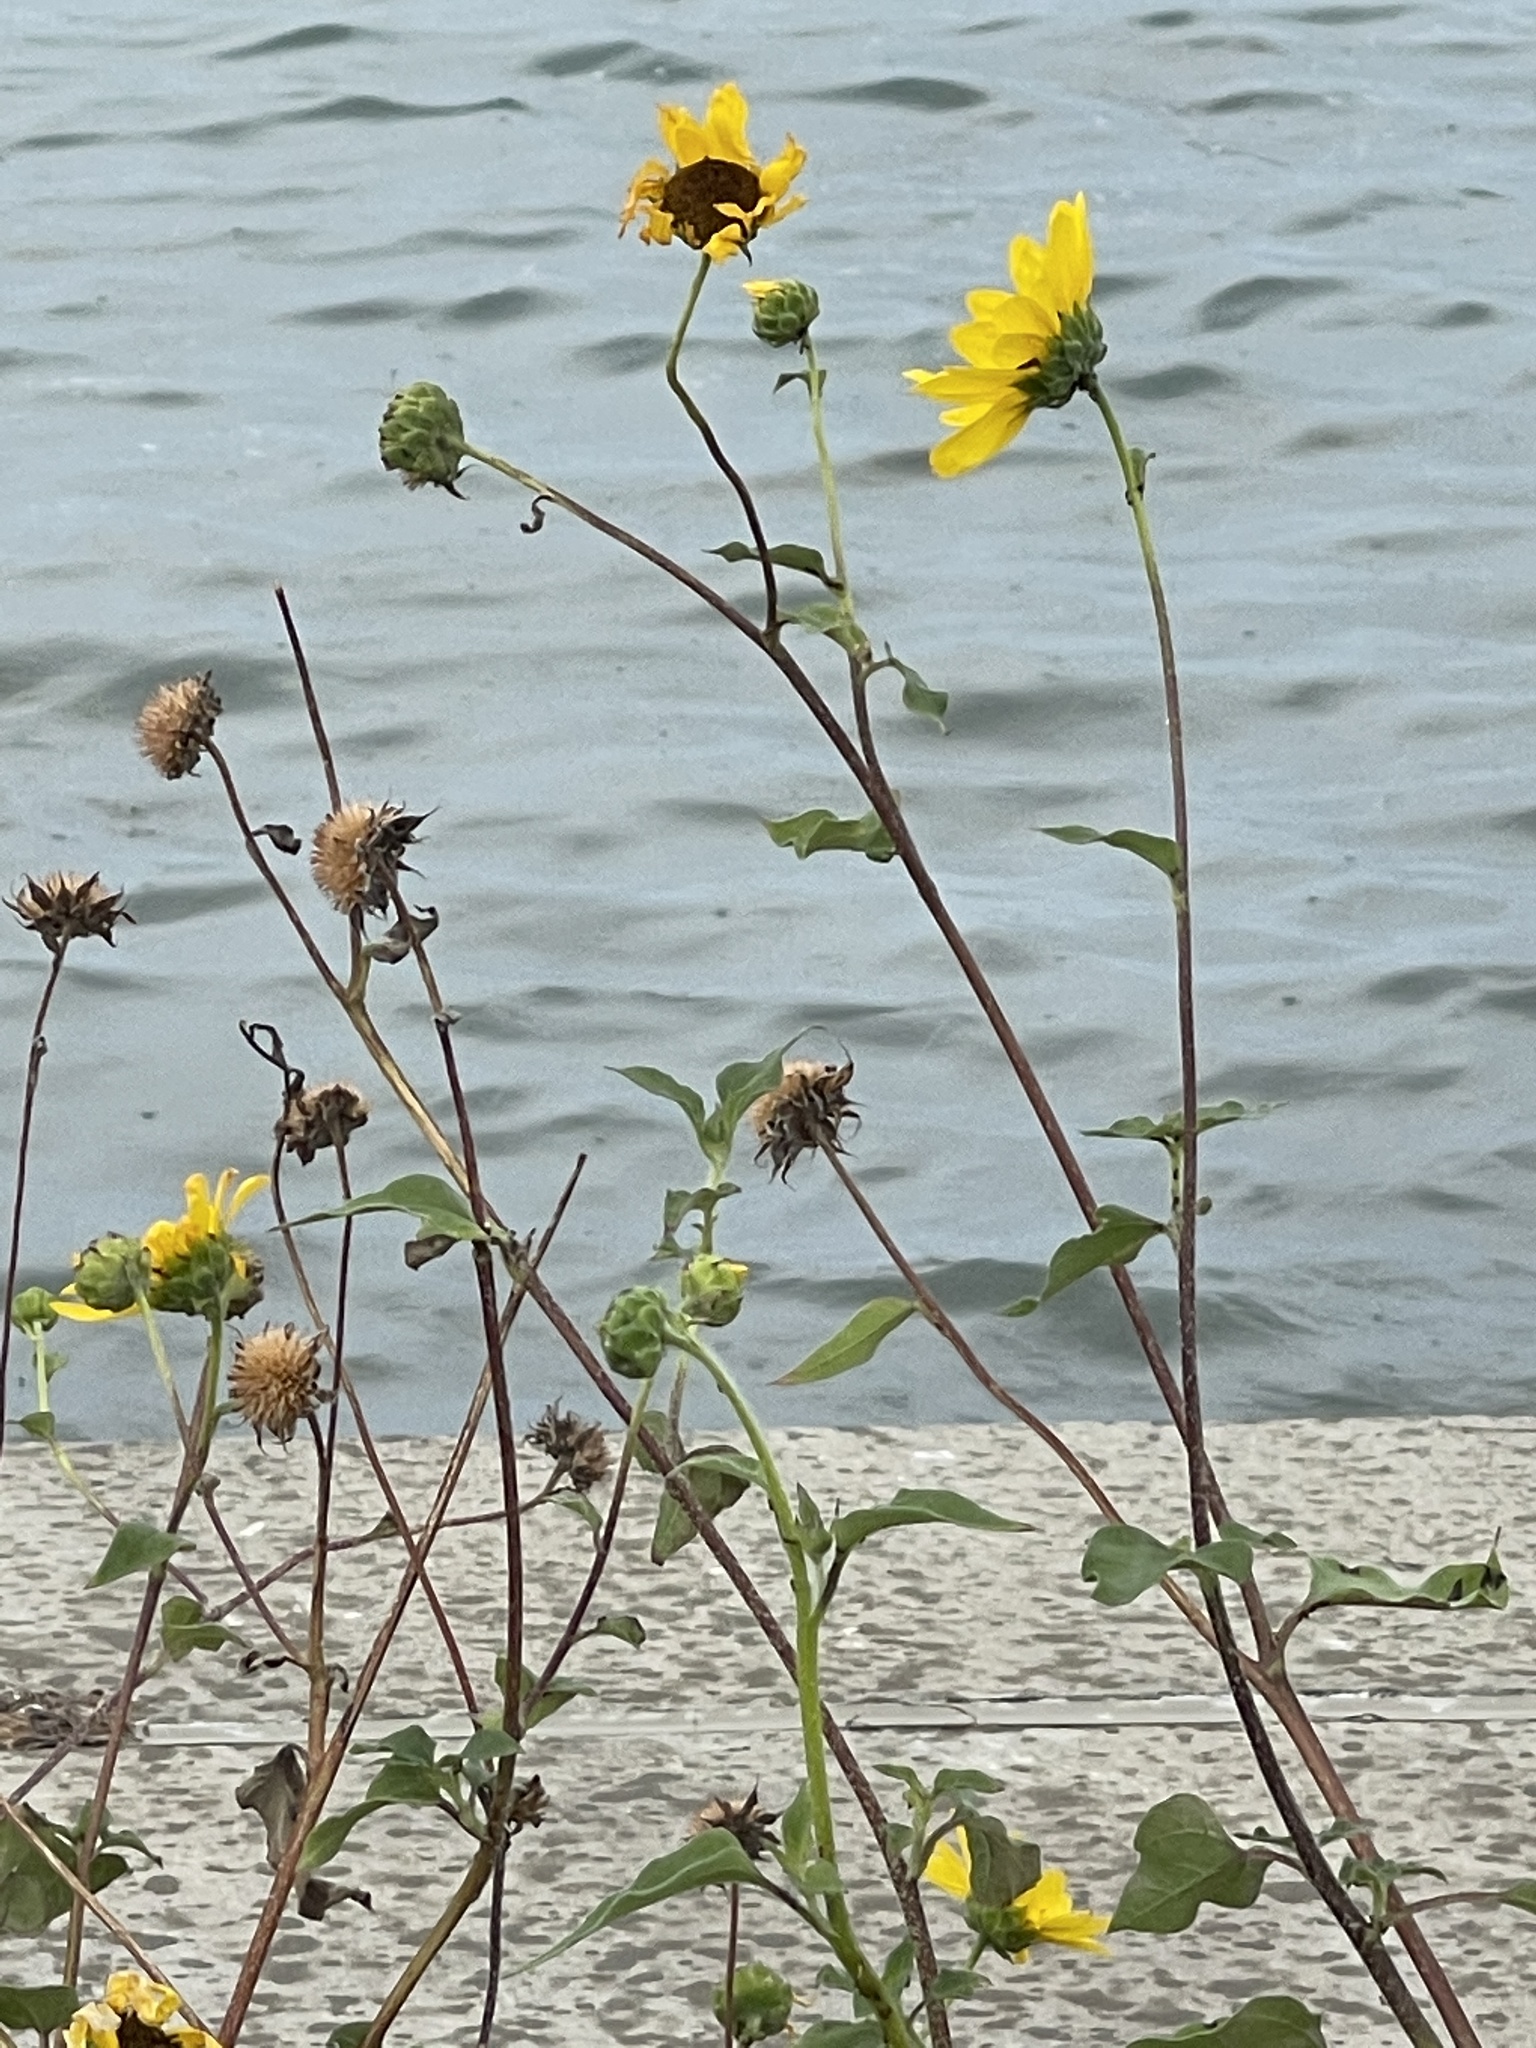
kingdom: Plantae
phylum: Tracheophyta
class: Magnoliopsida
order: Asterales
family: Asteraceae
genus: Helianthus
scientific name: Helianthus annuus
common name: Sunflower
